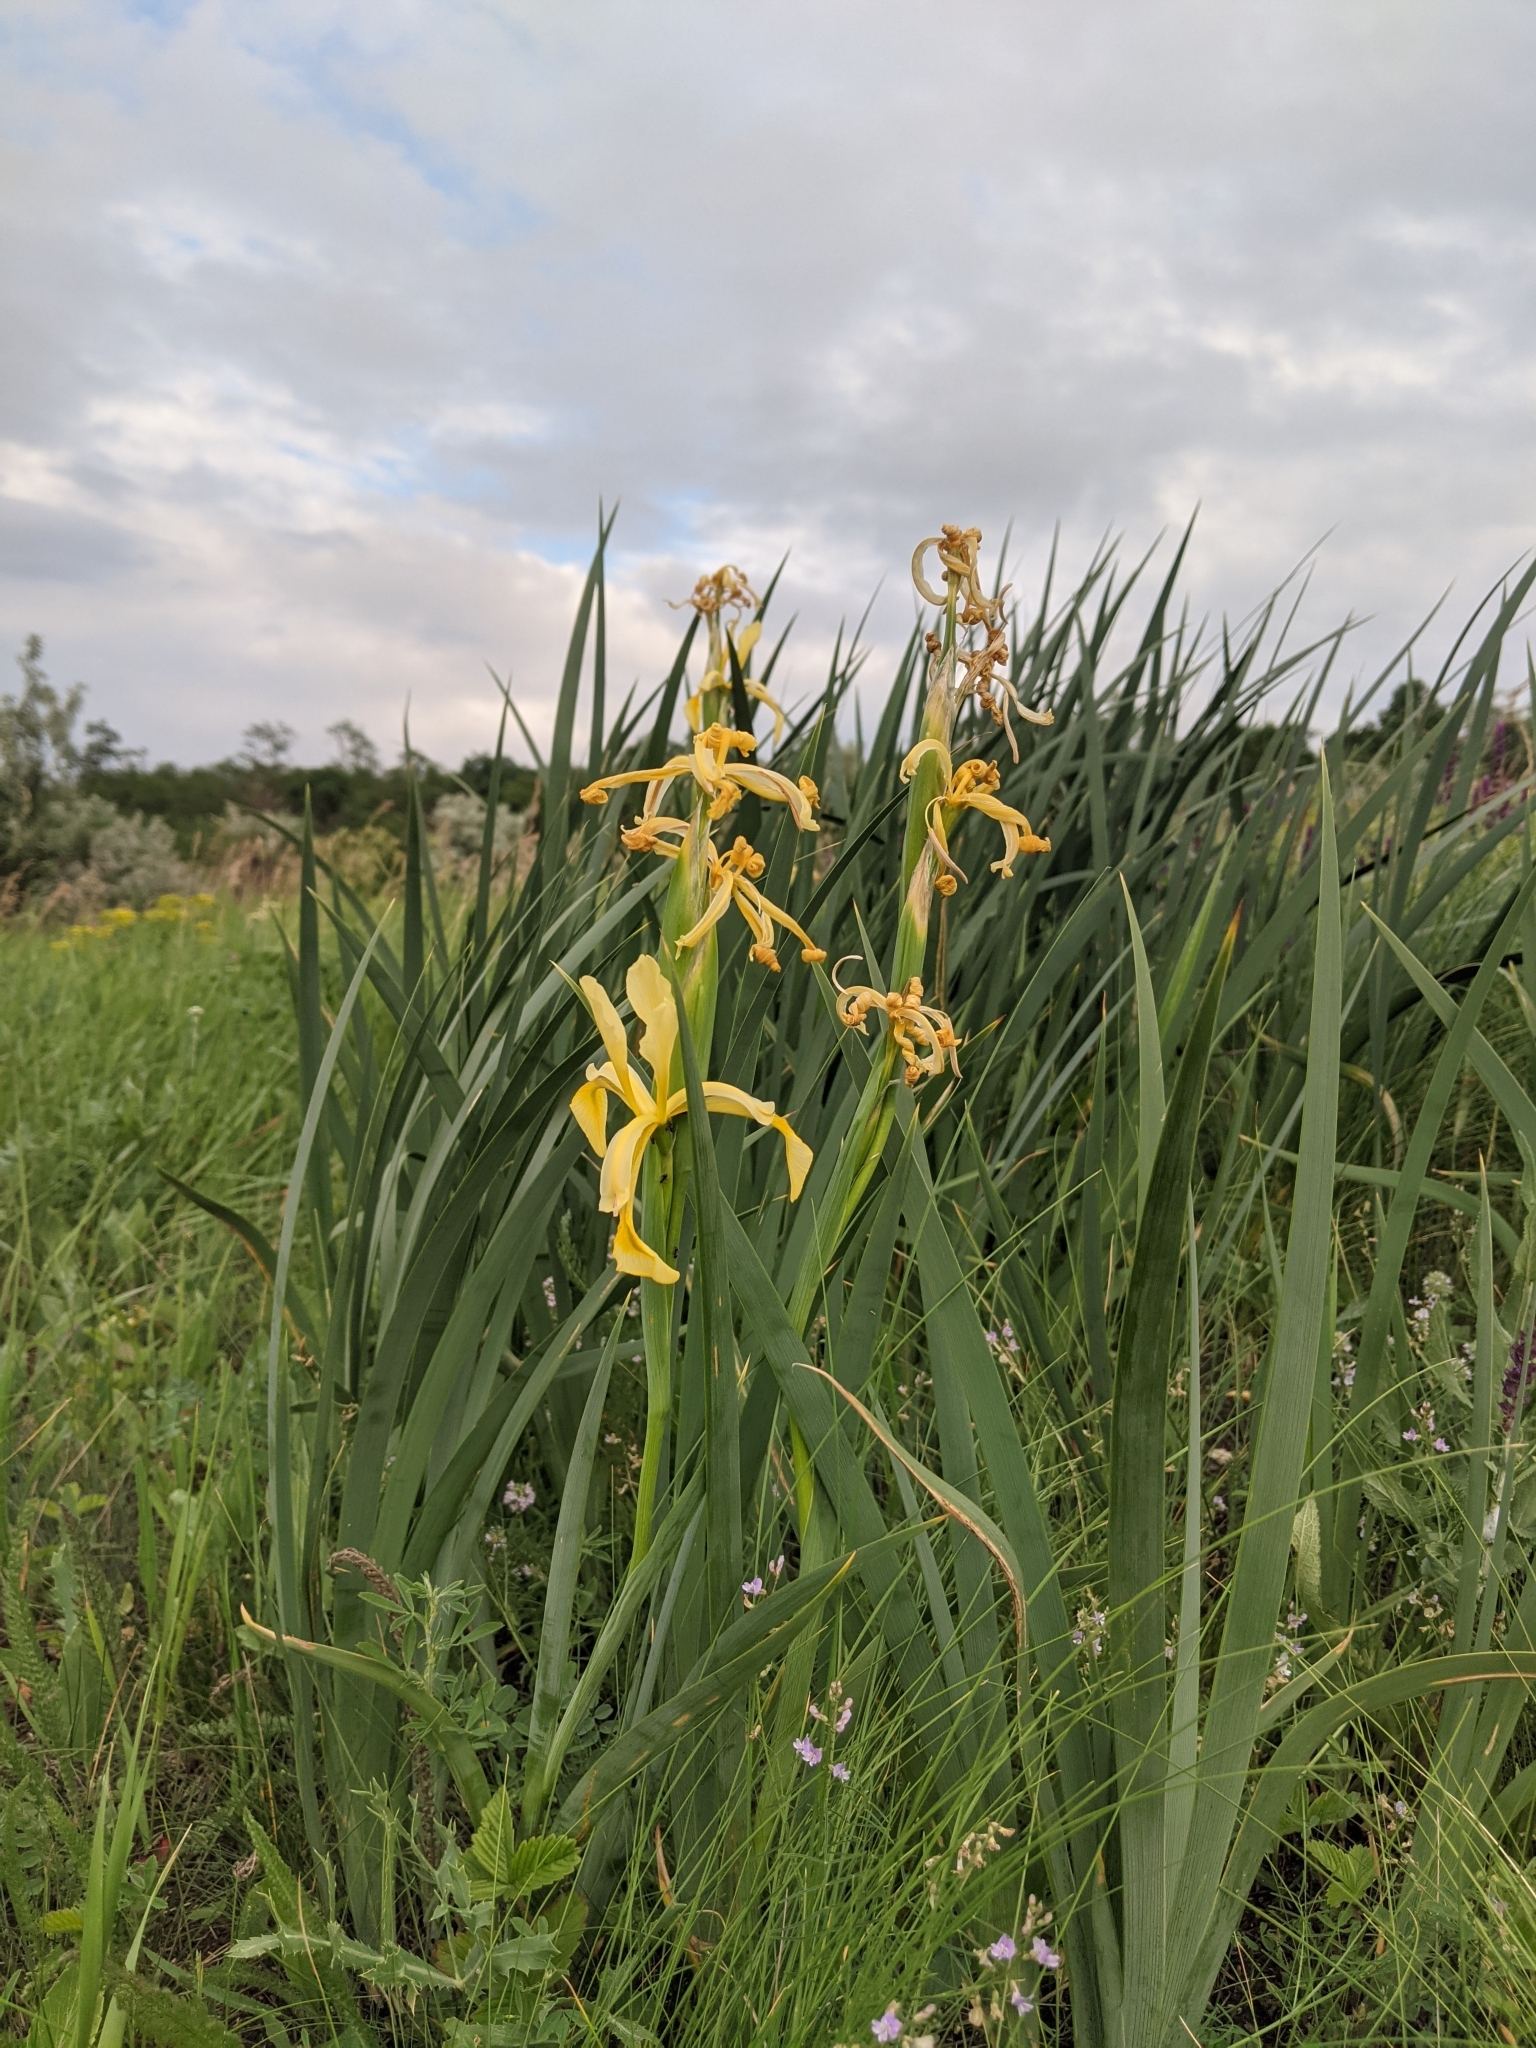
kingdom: Plantae
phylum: Tracheophyta
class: Liliopsida
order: Asparagales
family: Iridaceae
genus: Iris
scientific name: Iris halophila
